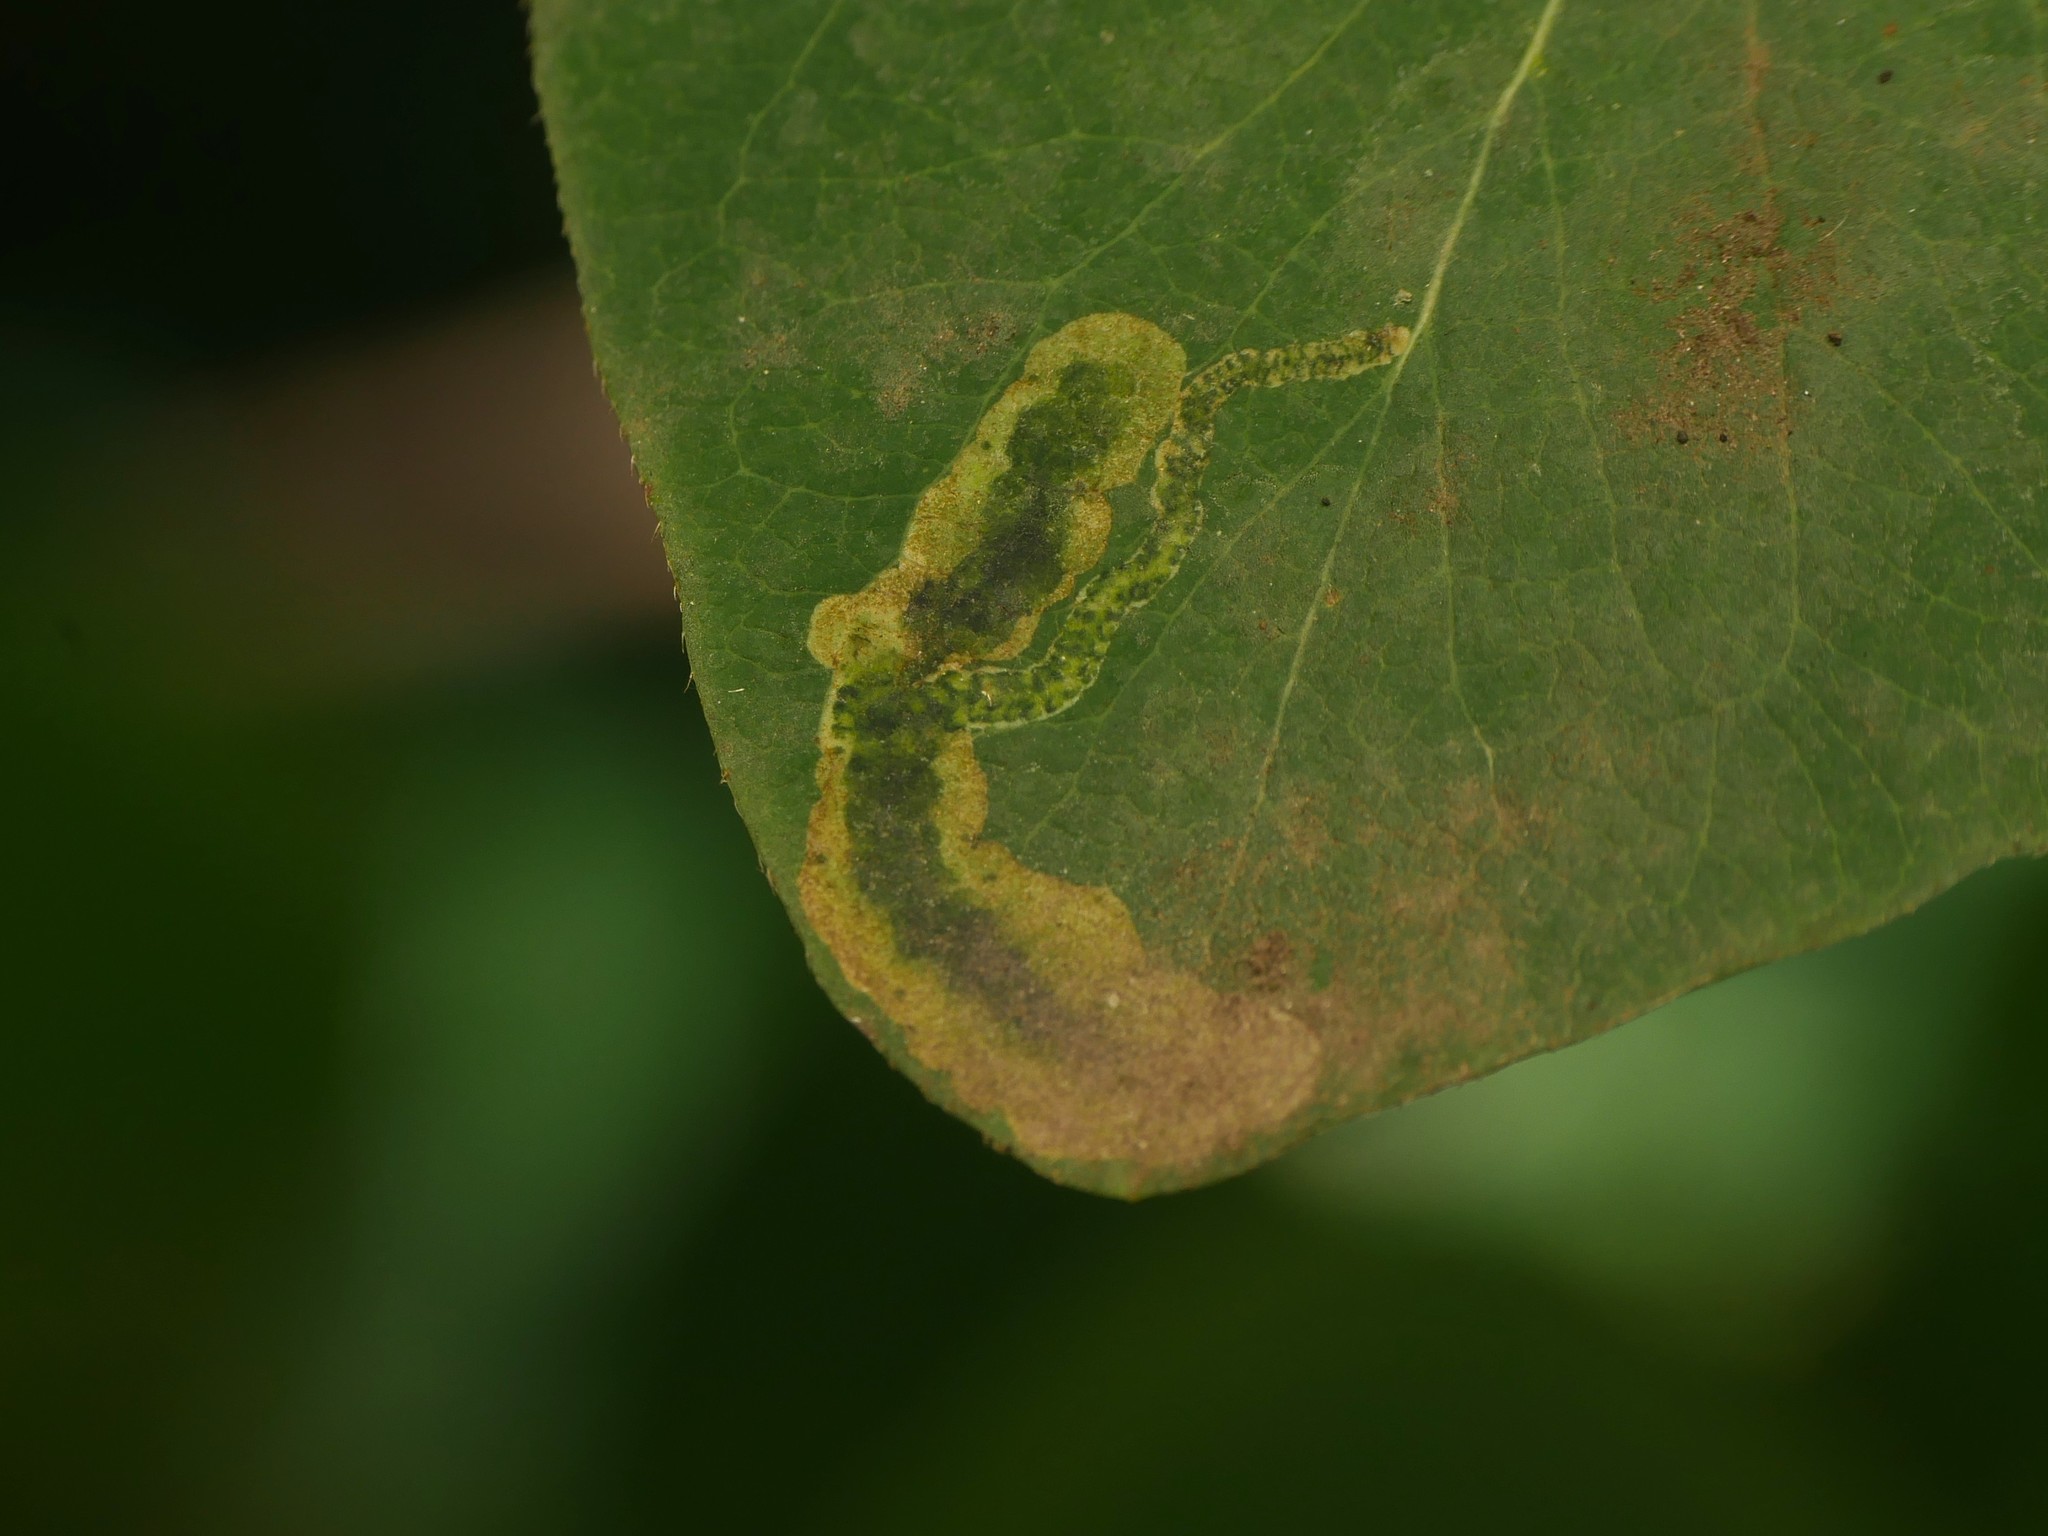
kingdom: Animalia
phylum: Arthropoda
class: Insecta
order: Diptera
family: Agromyzidae
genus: Aulagromyza
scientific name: Aulagromyza luteoscutellata
